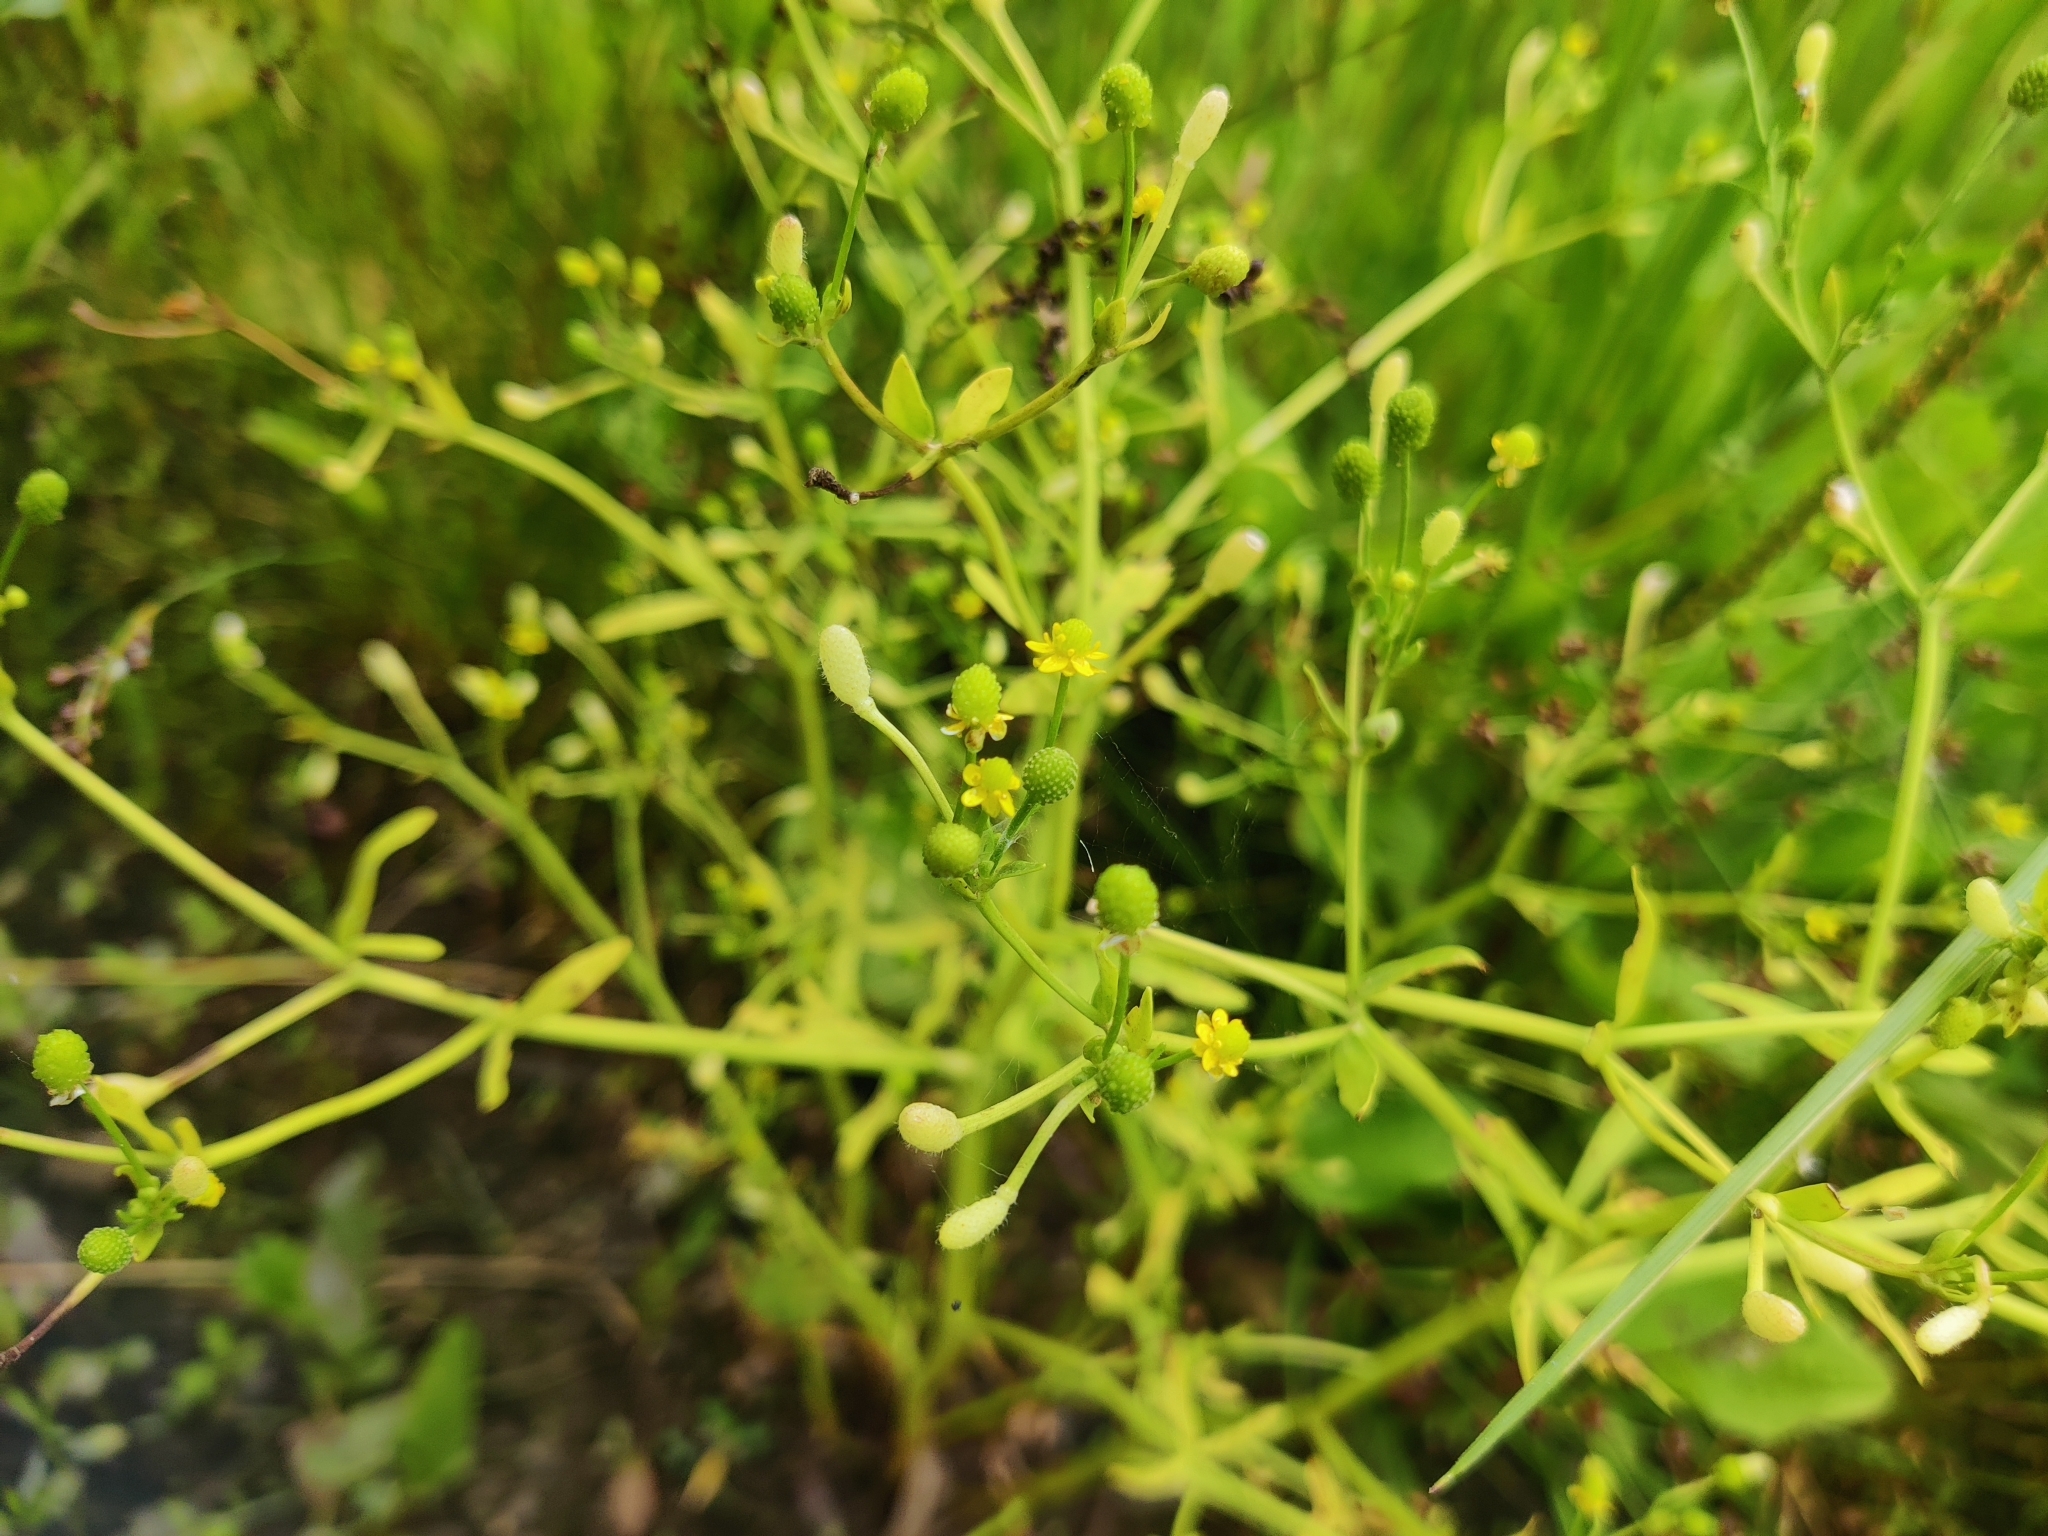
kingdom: Plantae
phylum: Tracheophyta
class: Magnoliopsida
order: Ranunculales
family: Ranunculaceae
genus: Ranunculus
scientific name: Ranunculus sceleratus
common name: Celery-leaved buttercup
